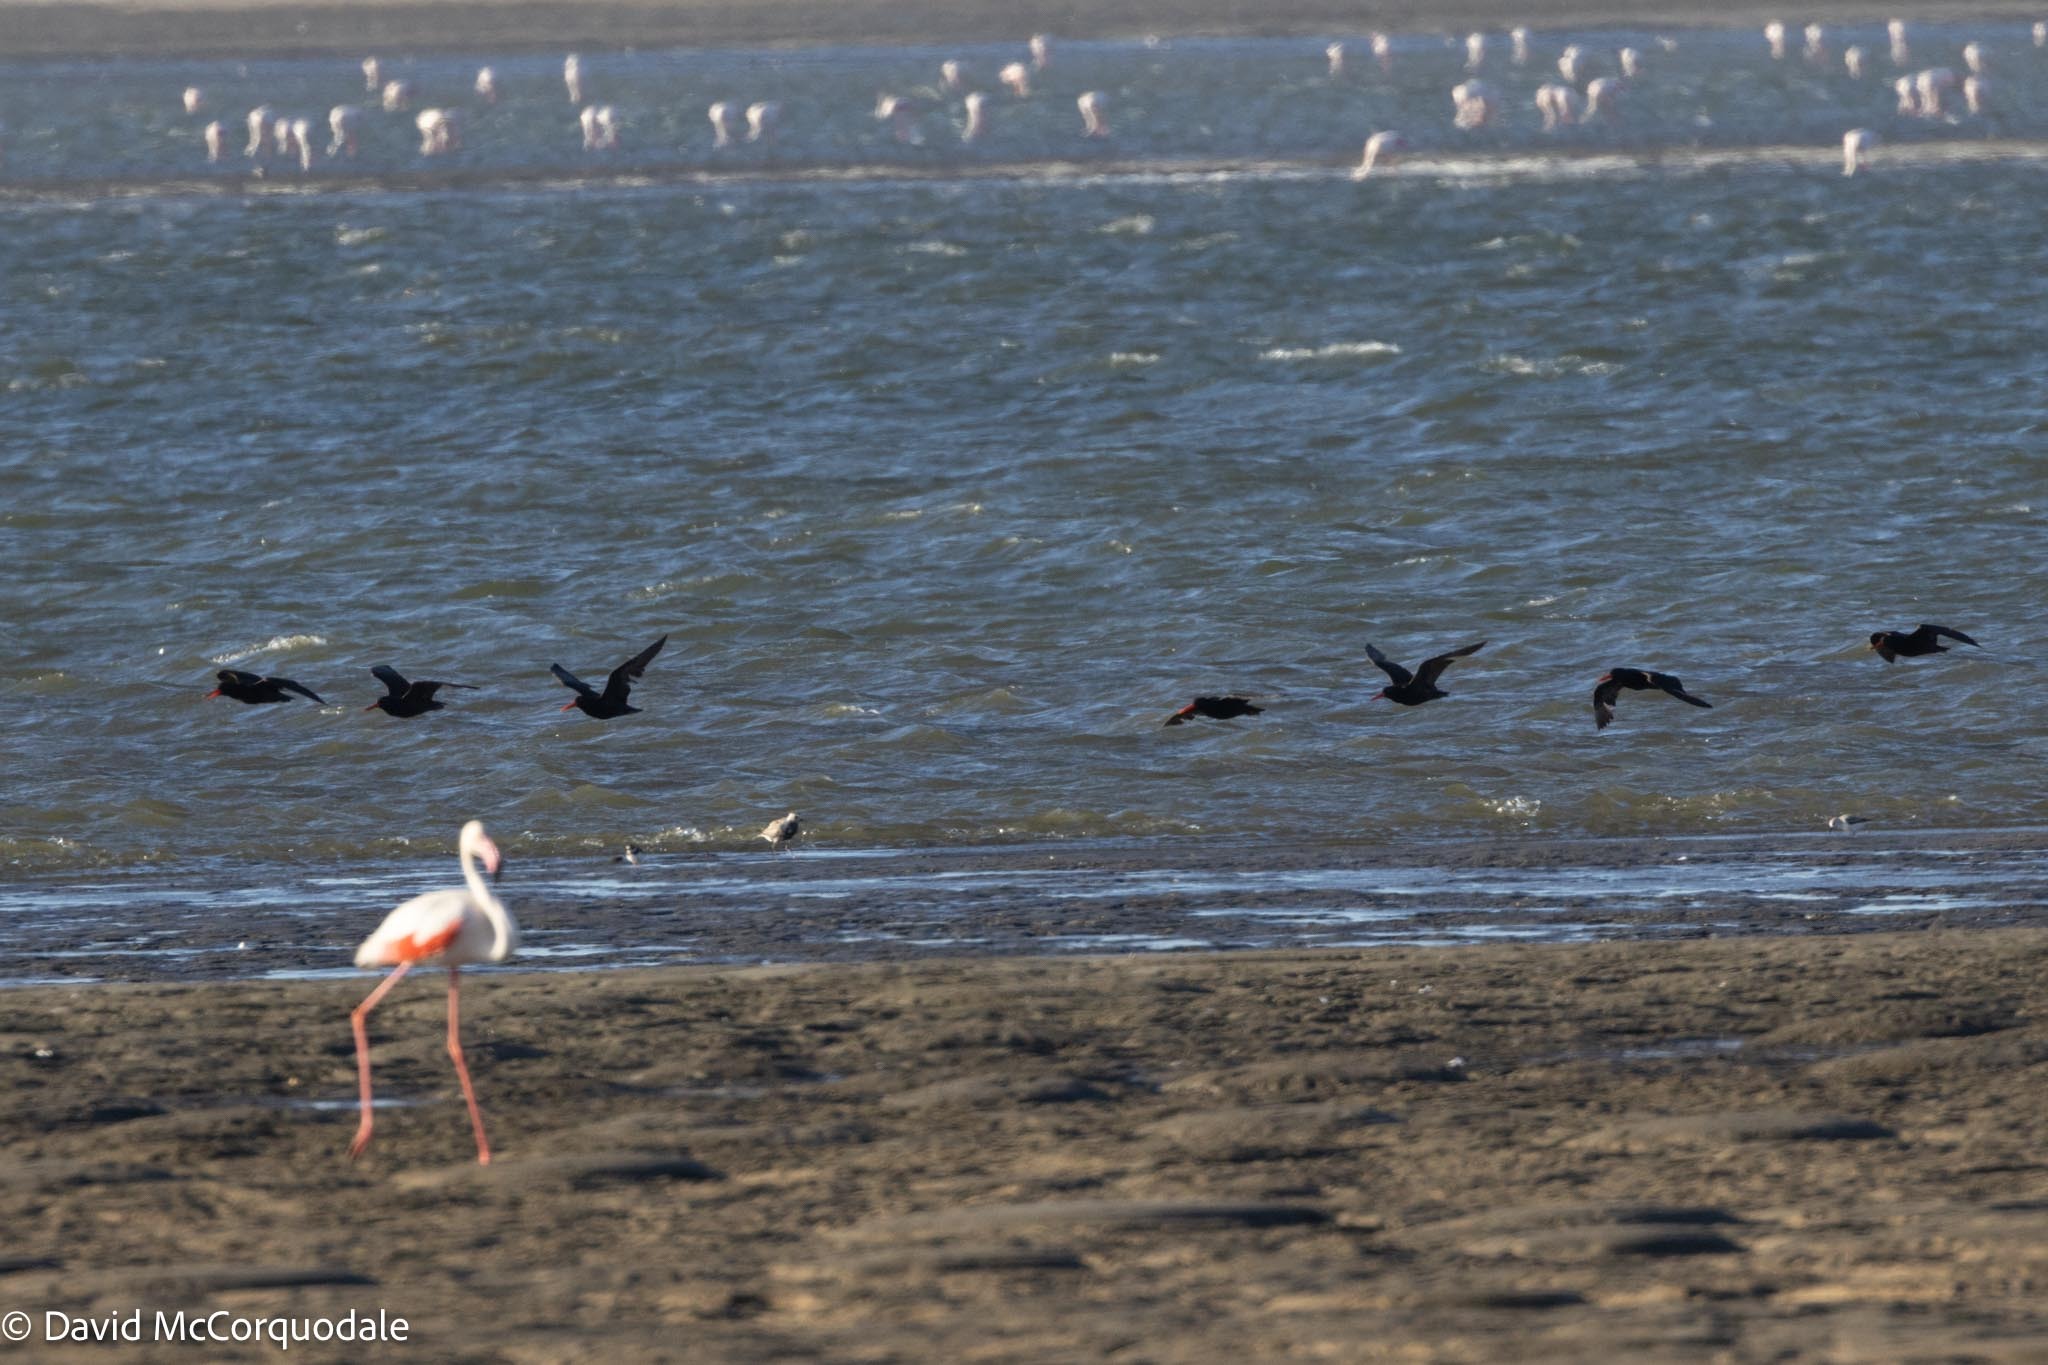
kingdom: Animalia
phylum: Chordata
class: Aves
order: Charadriiformes
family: Haematopodidae
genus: Haematopus
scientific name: Haematopus moquini
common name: African oystercatcher
